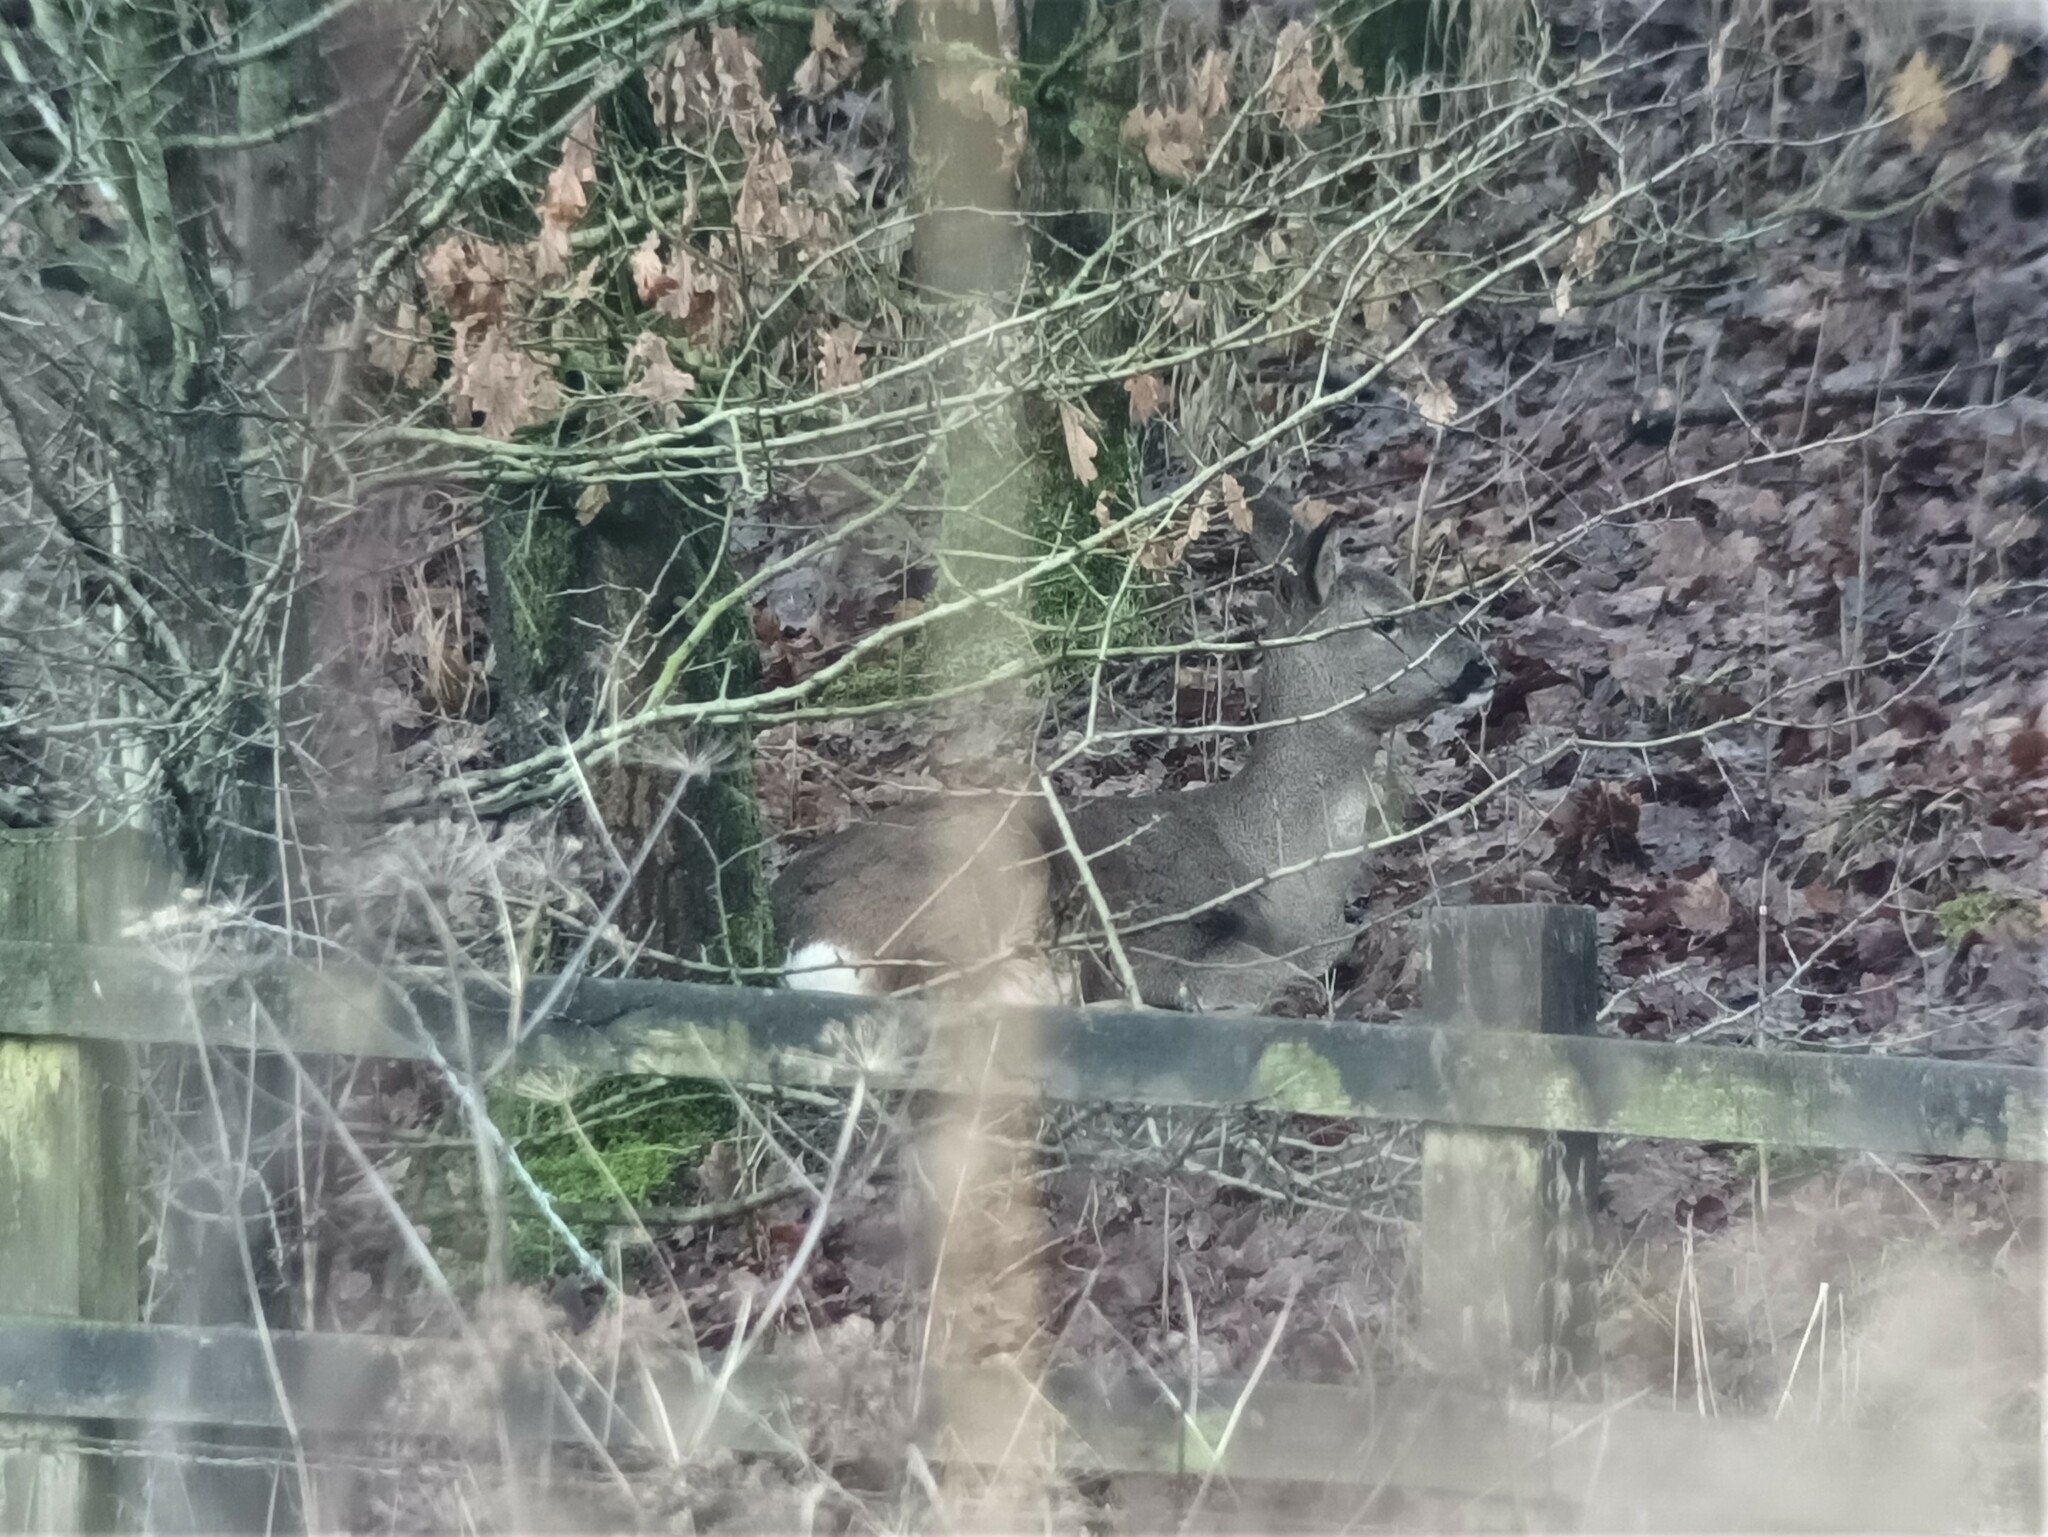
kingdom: Animalia
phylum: Chordata
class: Mammalia
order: Artiodactyla
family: Cervidae
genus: Capreolus
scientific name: Capreolus capreolus
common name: Western roe deer
